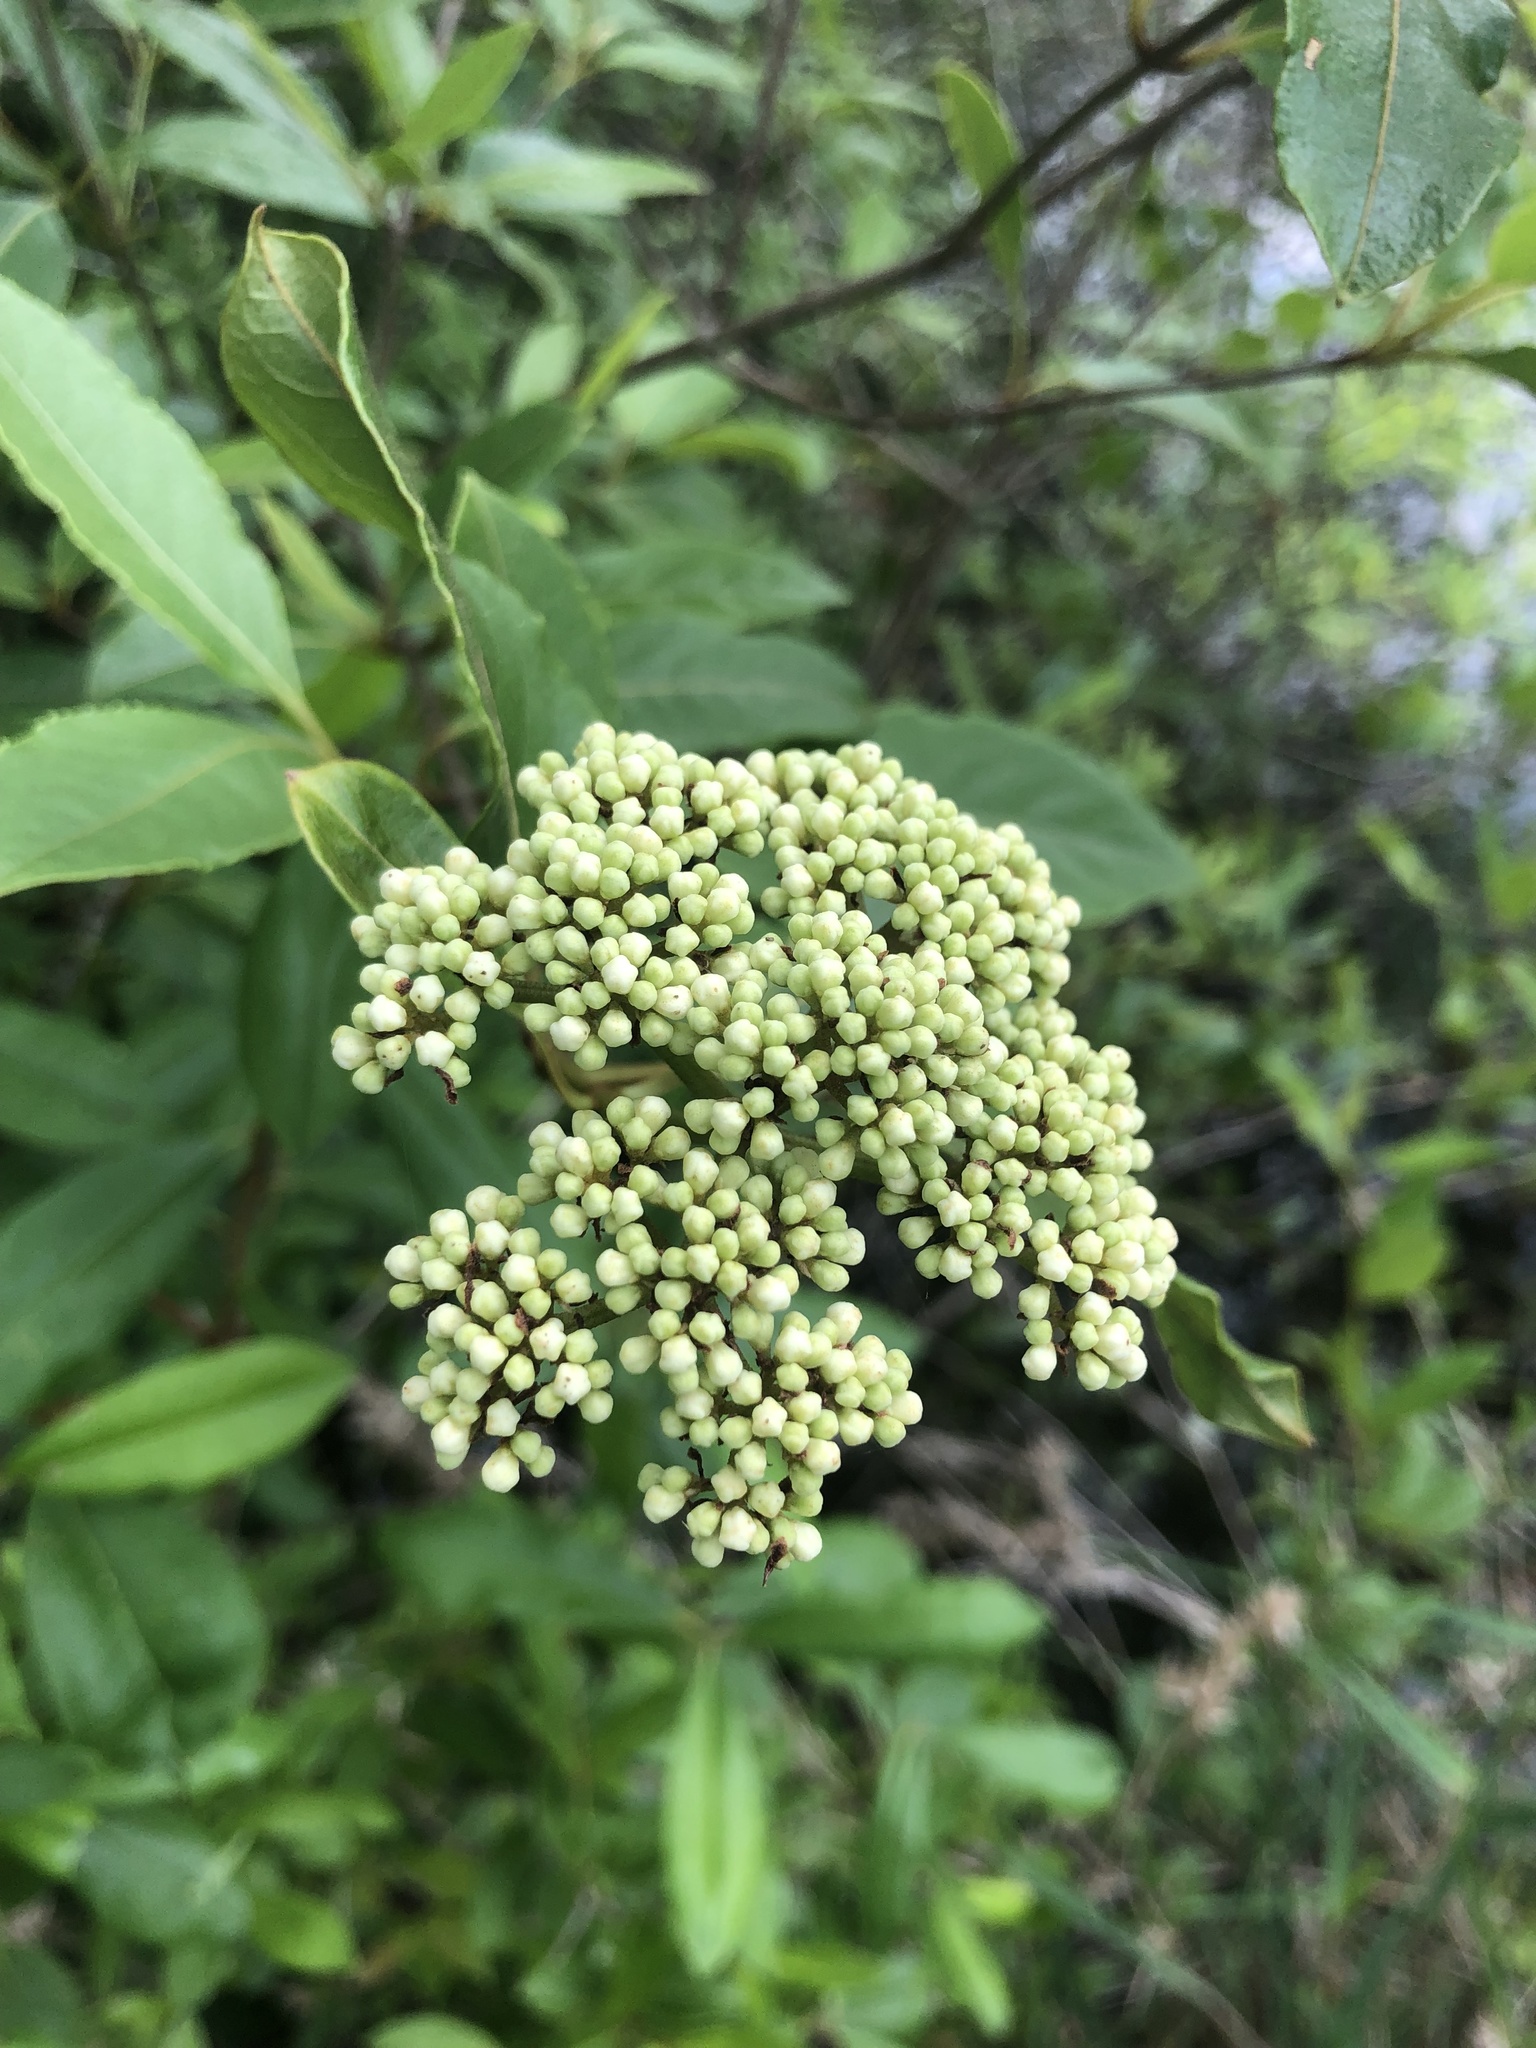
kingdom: Plantae
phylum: Tracheophyta
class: Magnoliopsida
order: Dipsacales
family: Viburnaceae
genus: Viburnum
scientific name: Viburnum cassinoides
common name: Swamp haw
